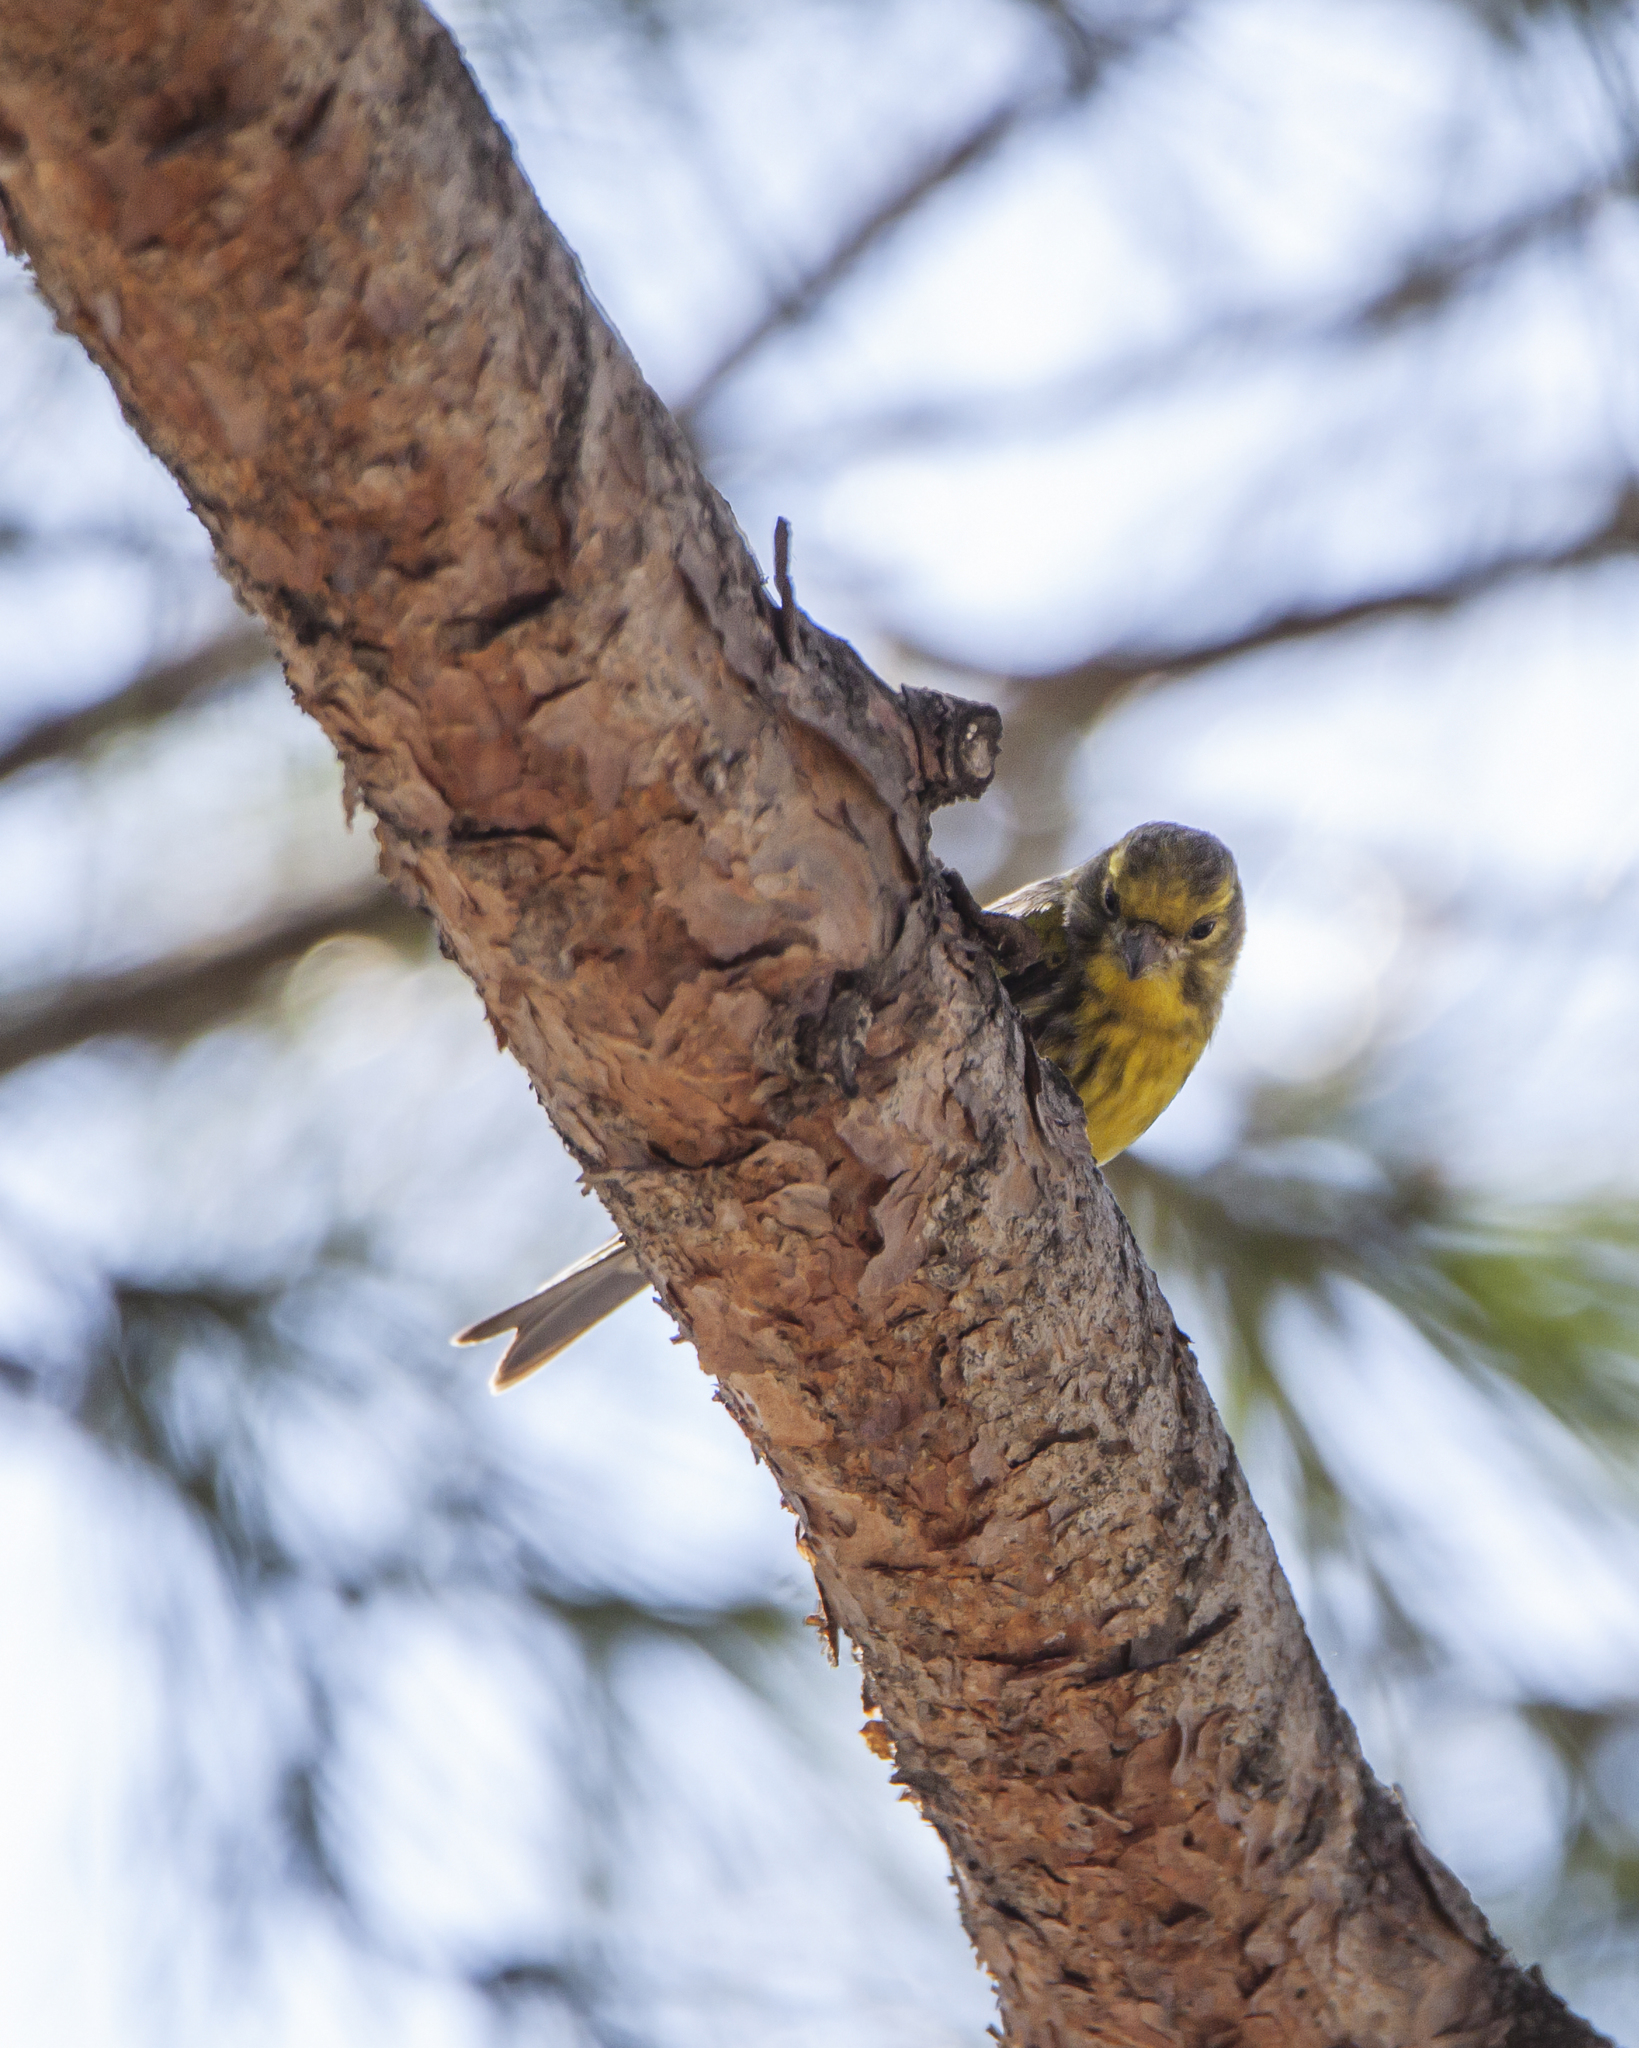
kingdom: Animalia
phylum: Chordata
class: Aves
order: Passeriformes
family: Fringillidae
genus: Serinus
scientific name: Serinus serinus
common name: European serin
